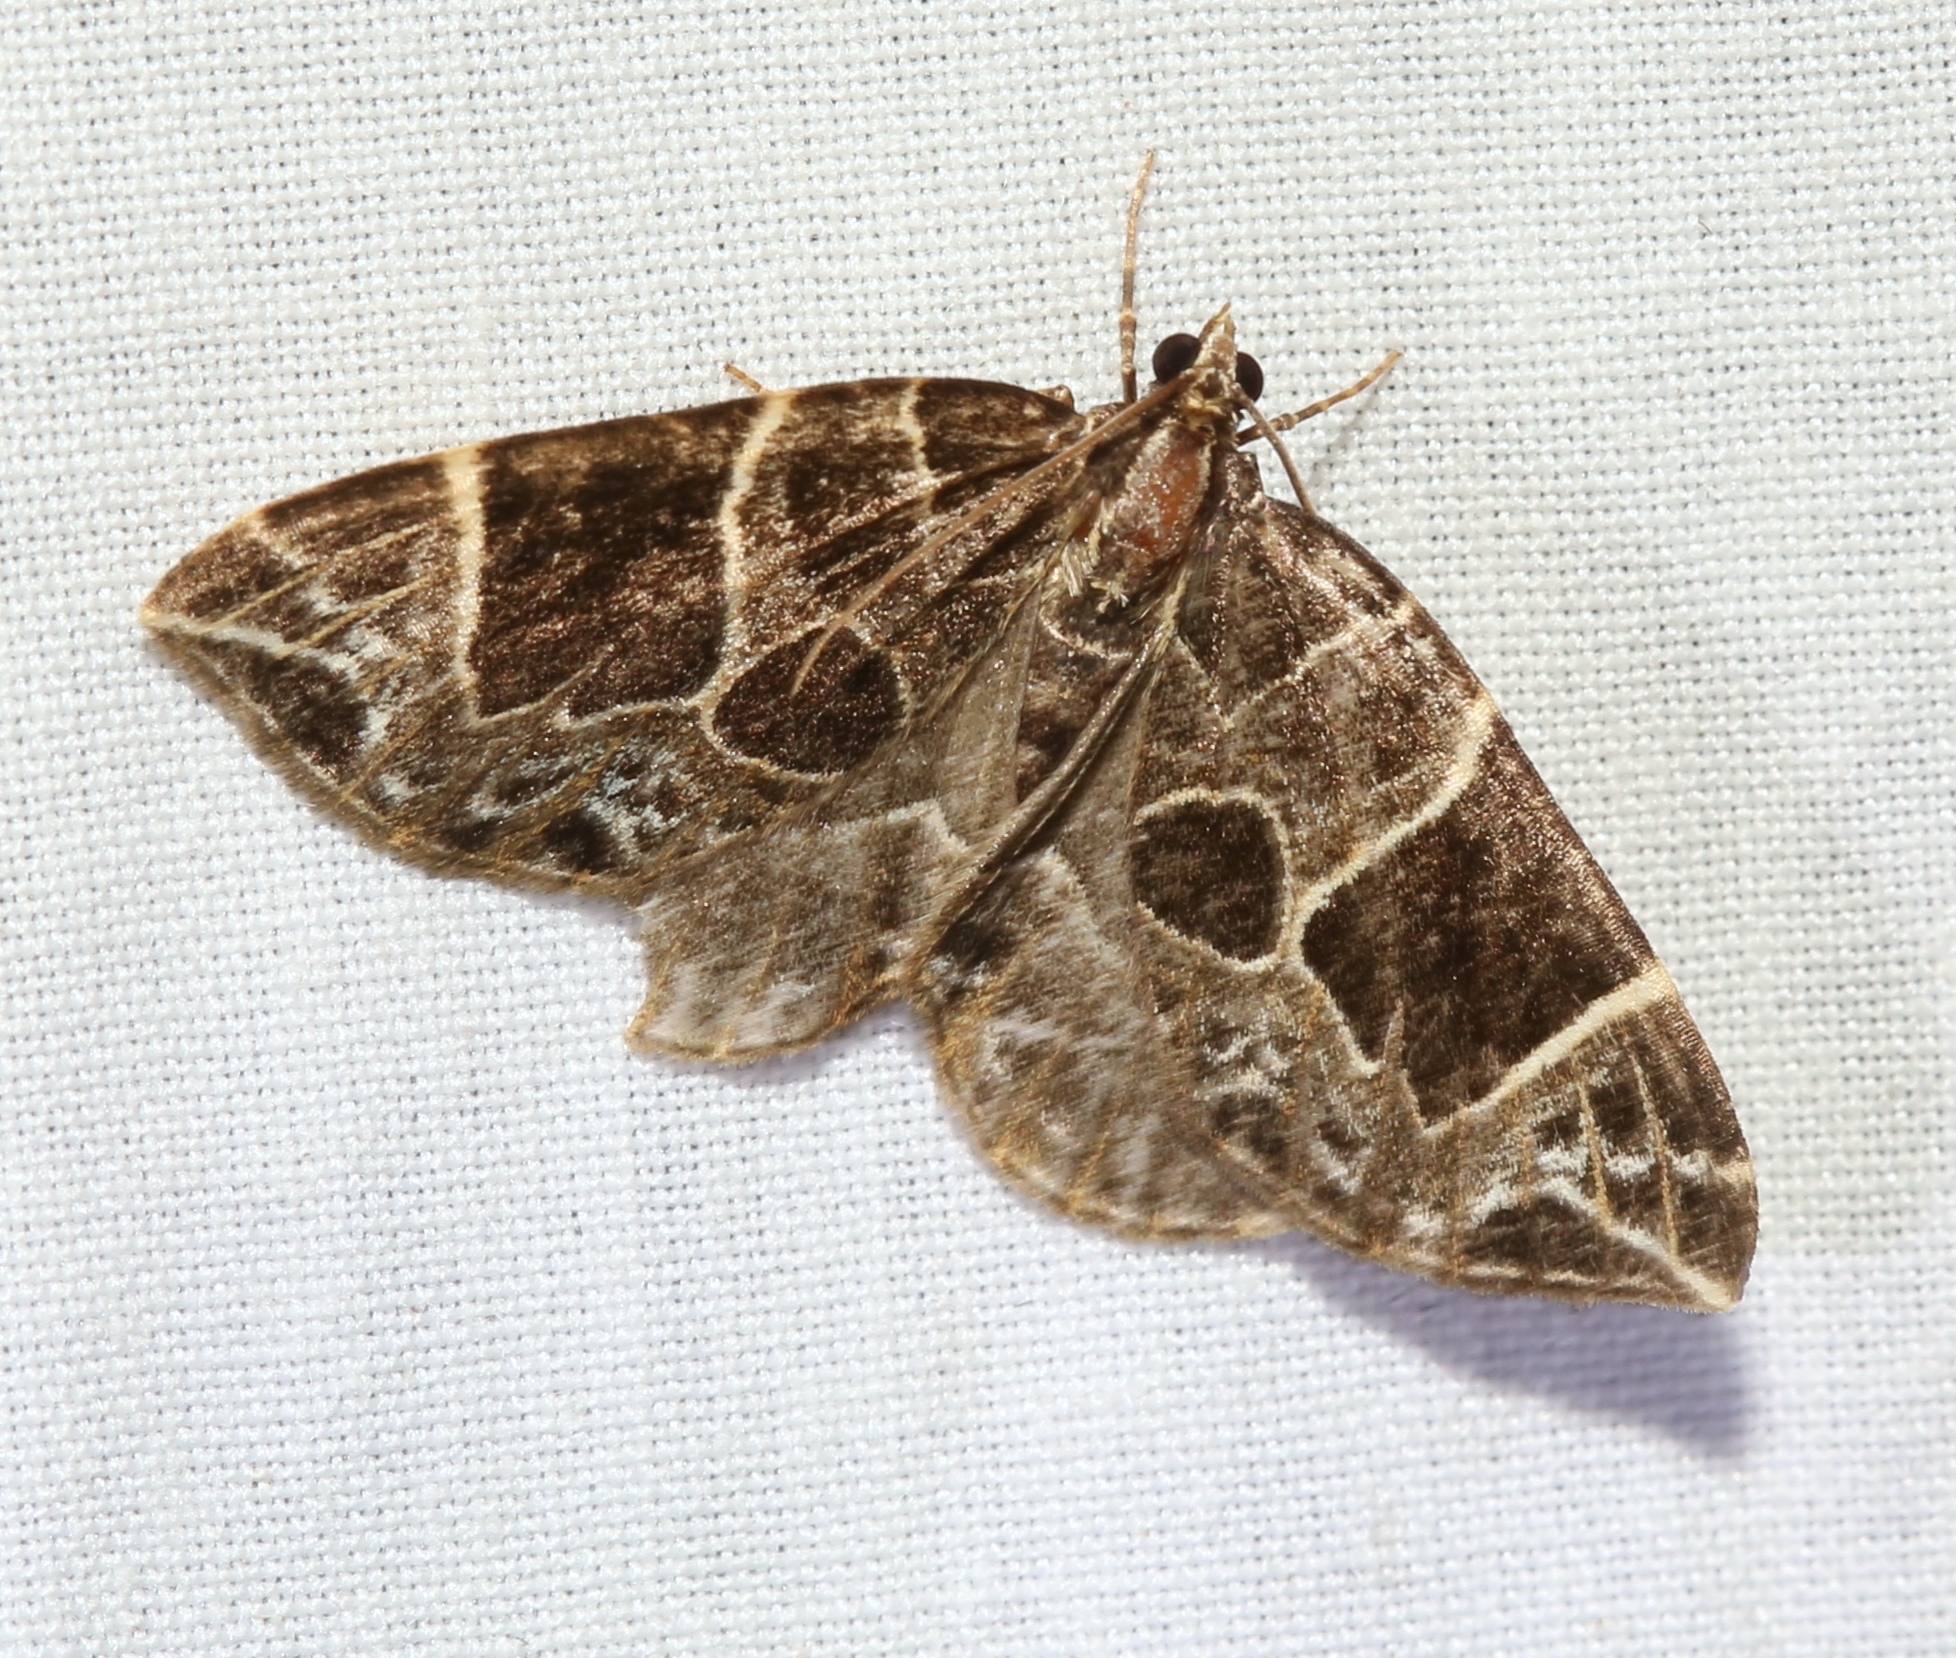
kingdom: Animalia
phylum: Arthropoda
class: Insecta
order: Lepidoptera
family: Geometridae
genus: Ecliptopera
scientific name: Ecliptopera atricolorata
